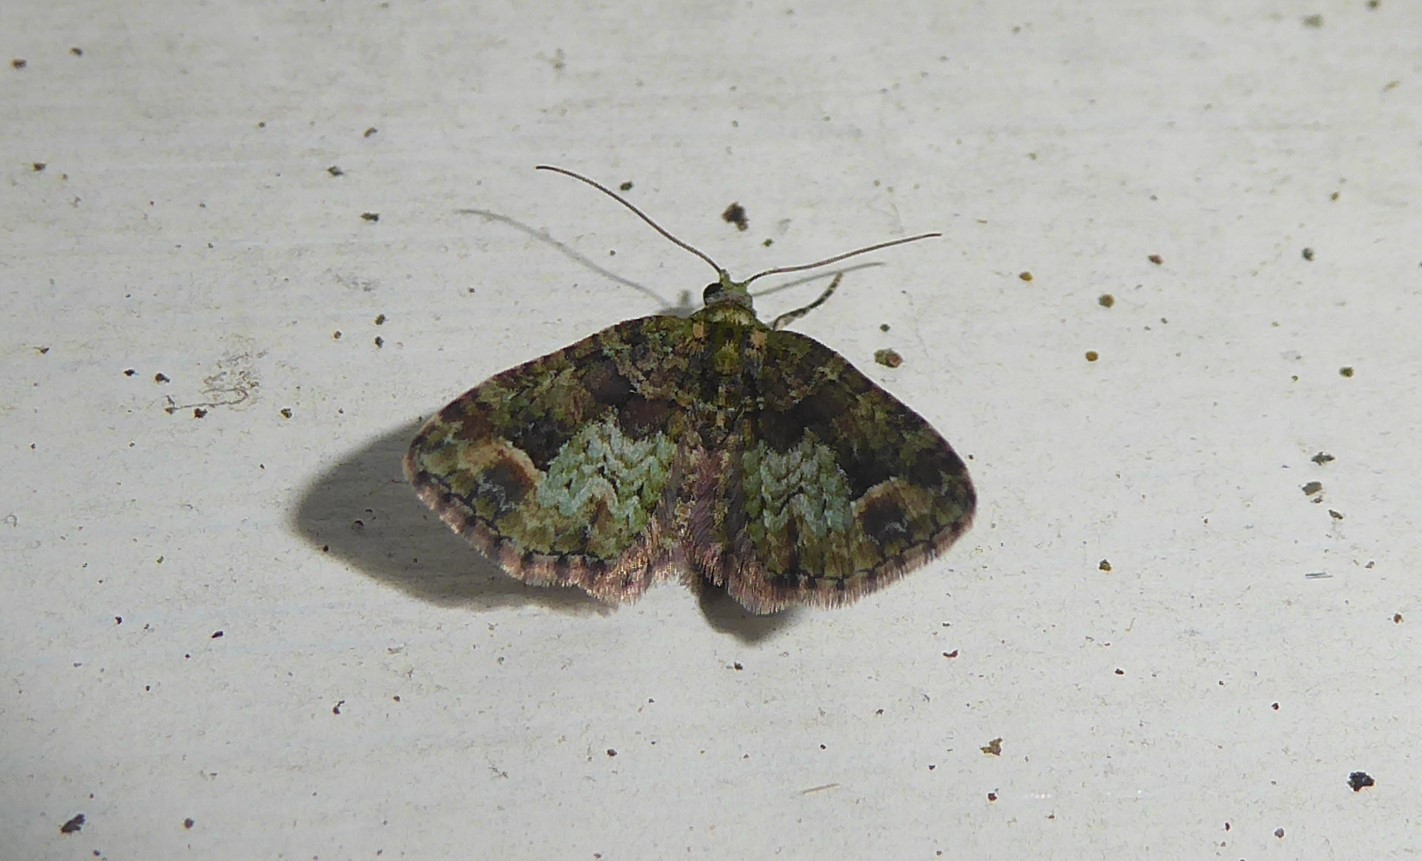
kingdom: Animalia
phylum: Arthropoda
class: Insecta
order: Lepidoptera
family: Geometridae
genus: Idaea
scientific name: Idaea mutanda
